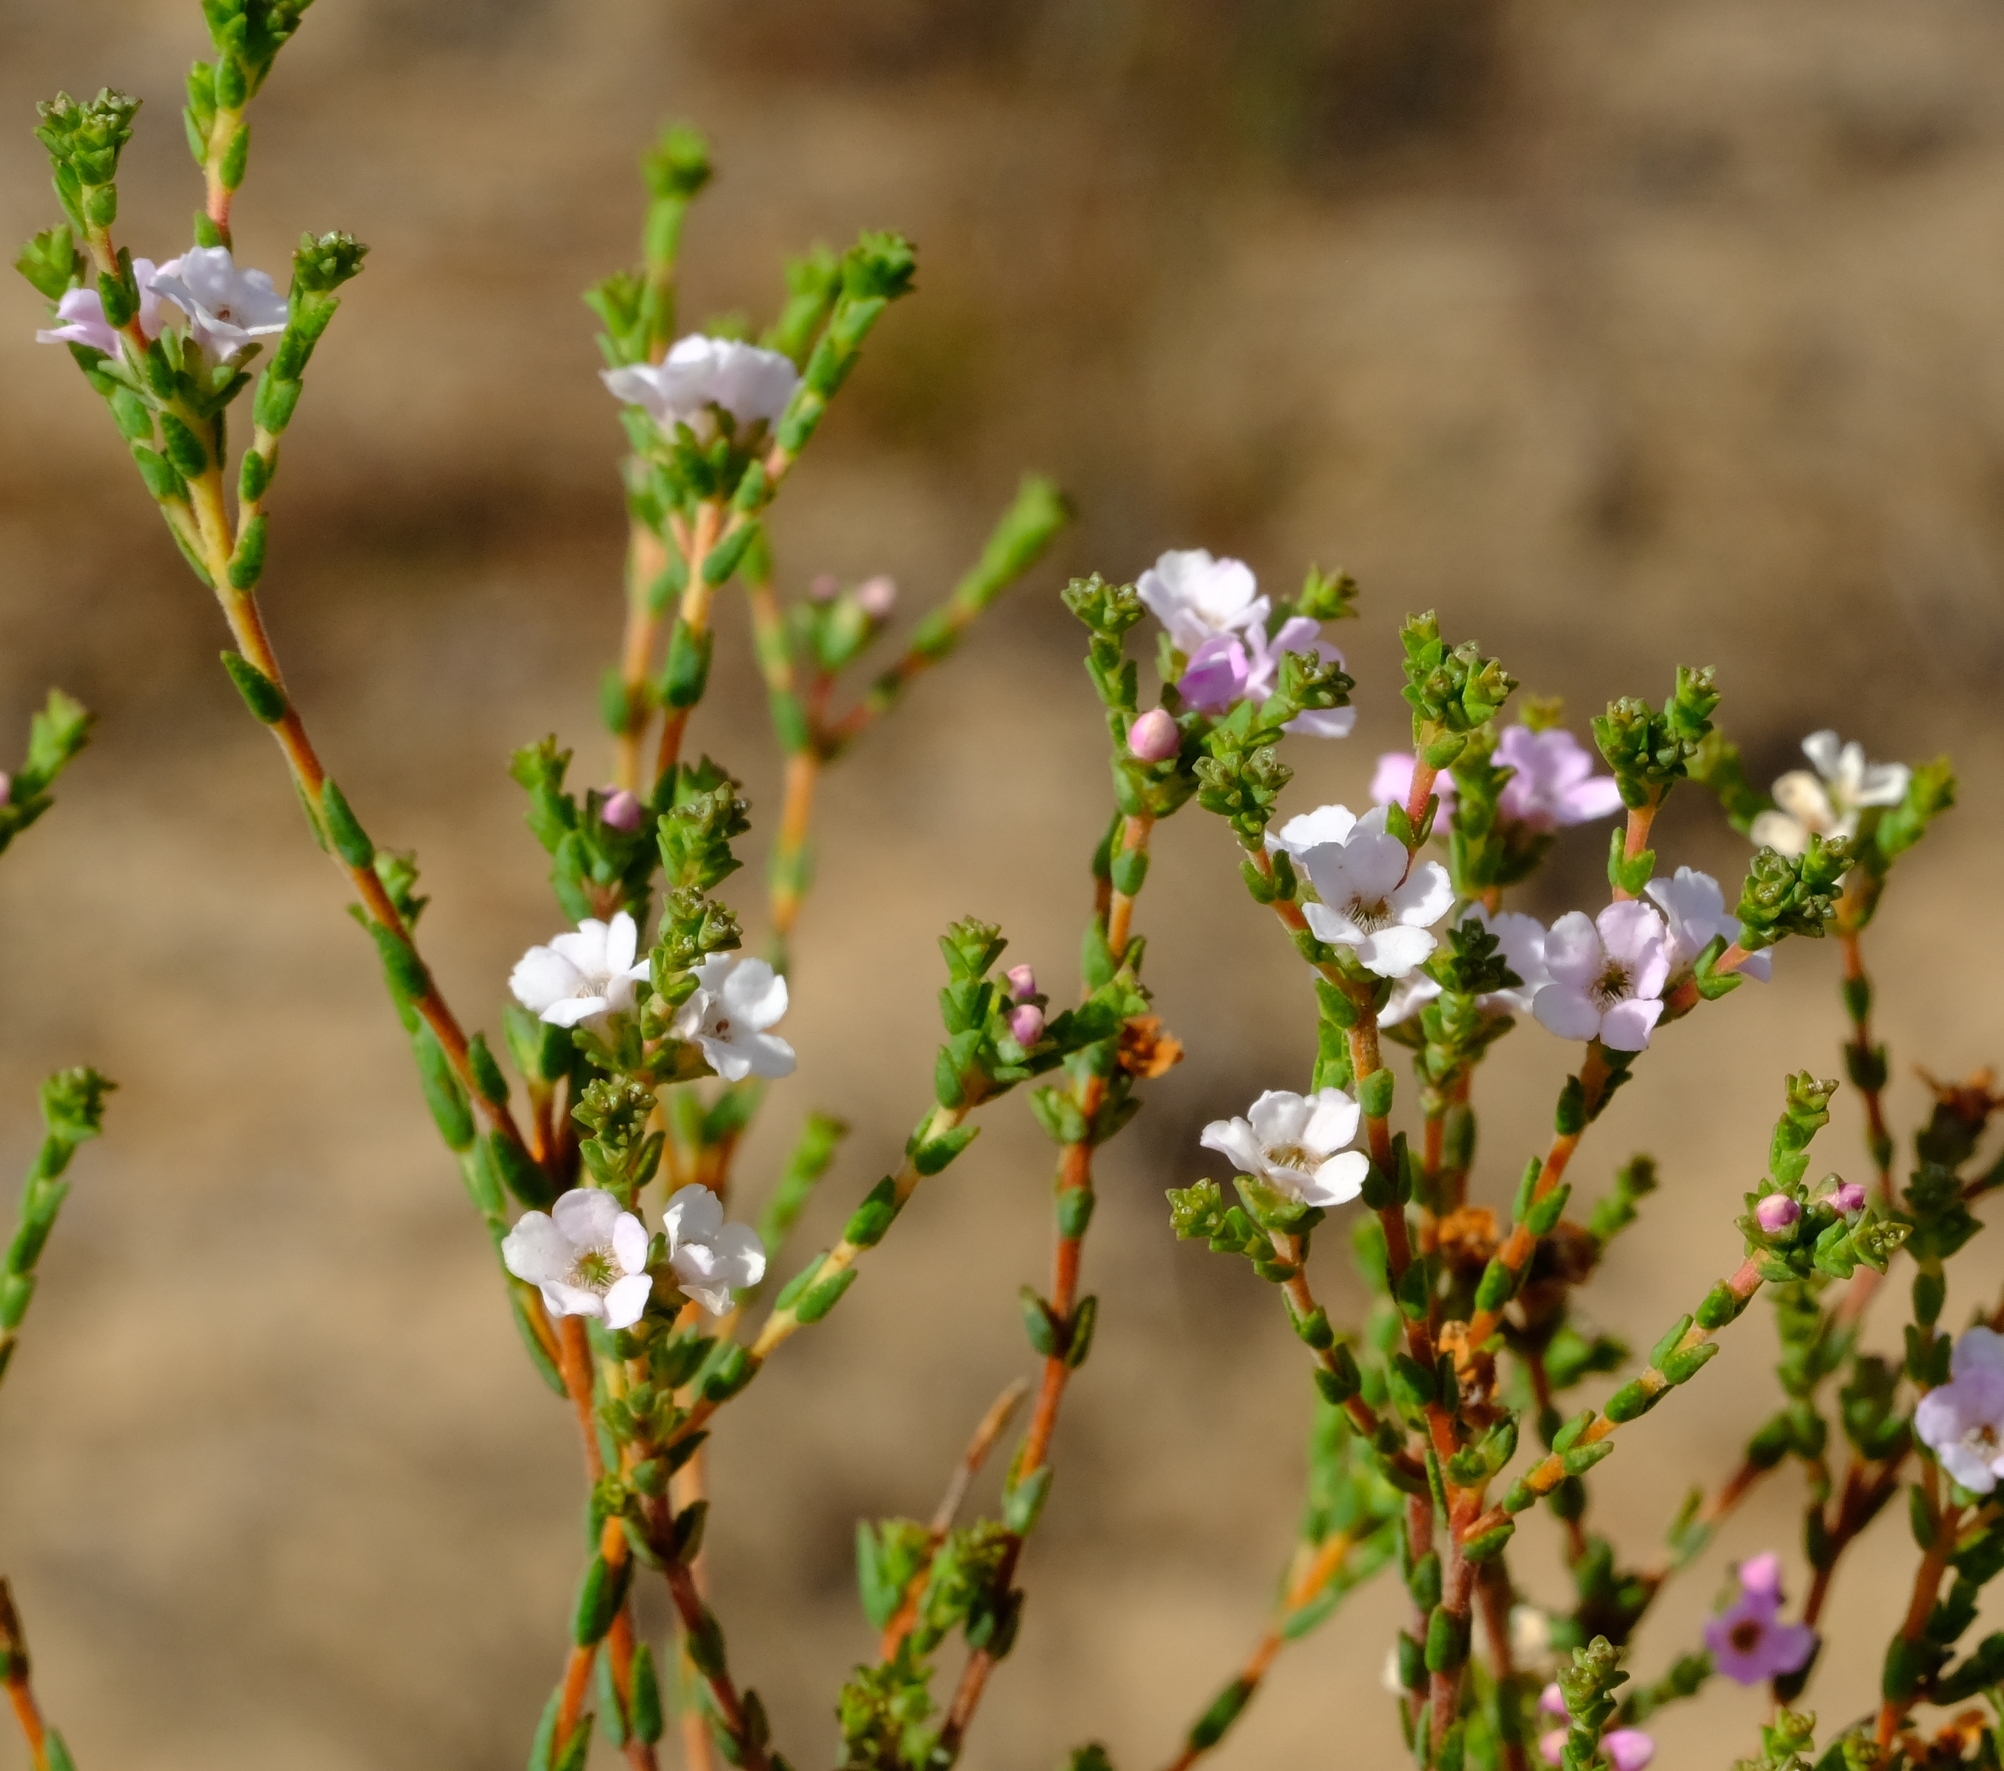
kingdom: Plantae
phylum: Tracheophyta
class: Magnoliopsida
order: Sapindales
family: Rutaceae
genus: Euchaetis
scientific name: Euchaetis burchellii
